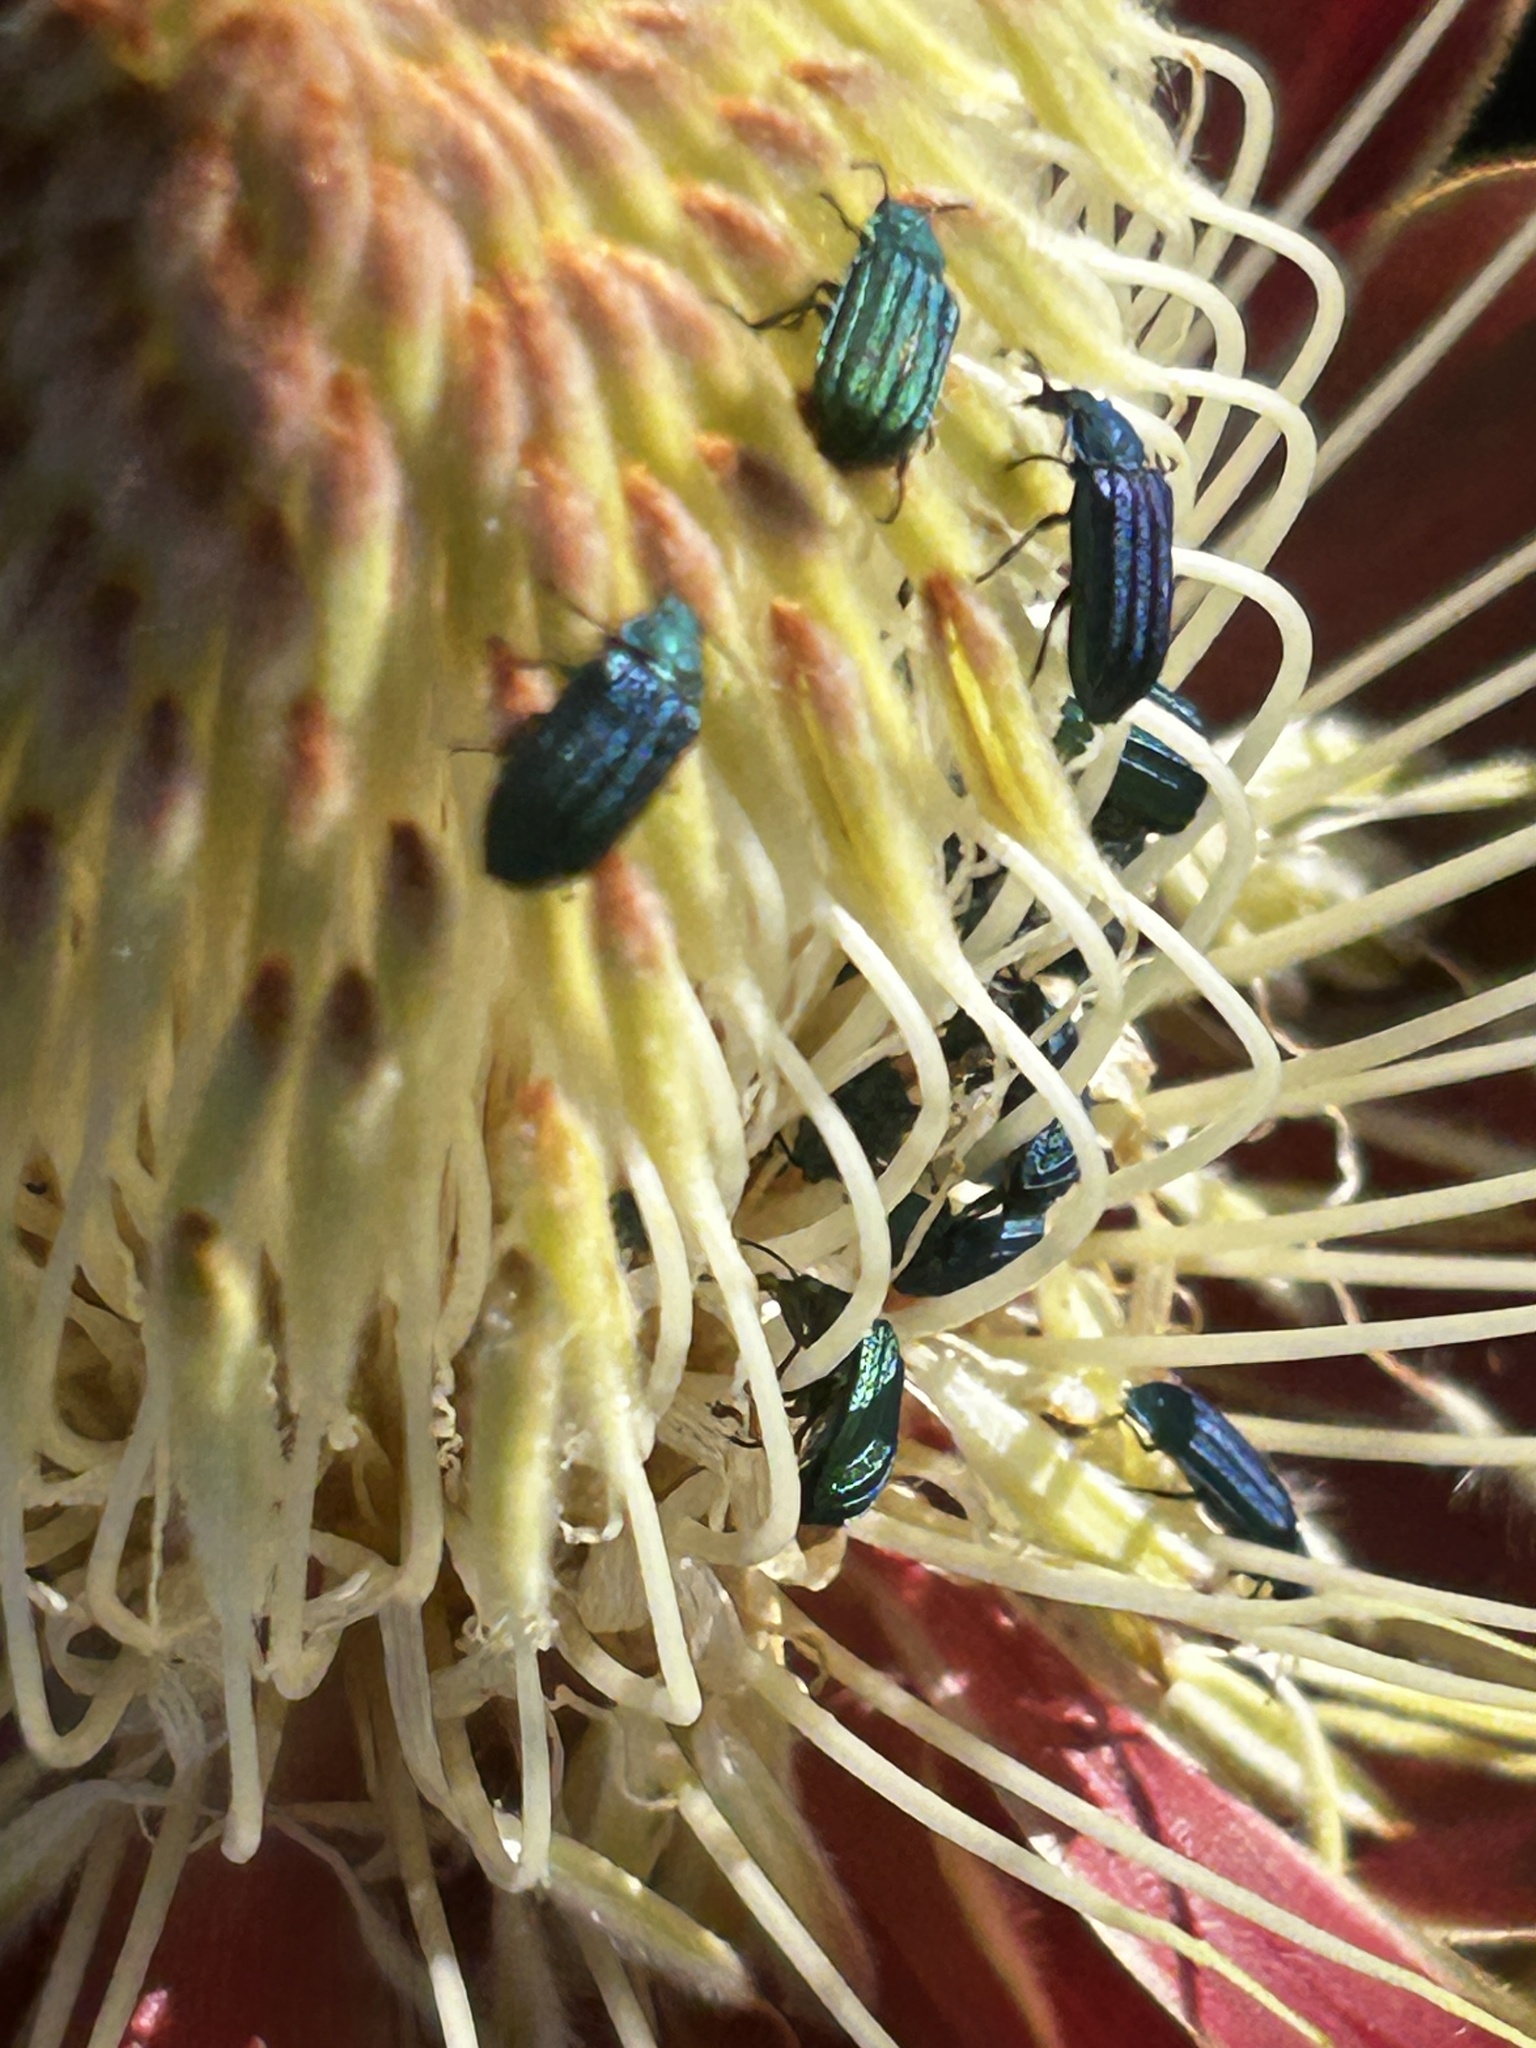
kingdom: Plantae
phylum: Tracheophyta
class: Magnoliopsida
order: Proteales
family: Proteaceae
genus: Protea
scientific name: Protea glabra
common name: Chestnut sugarbush
